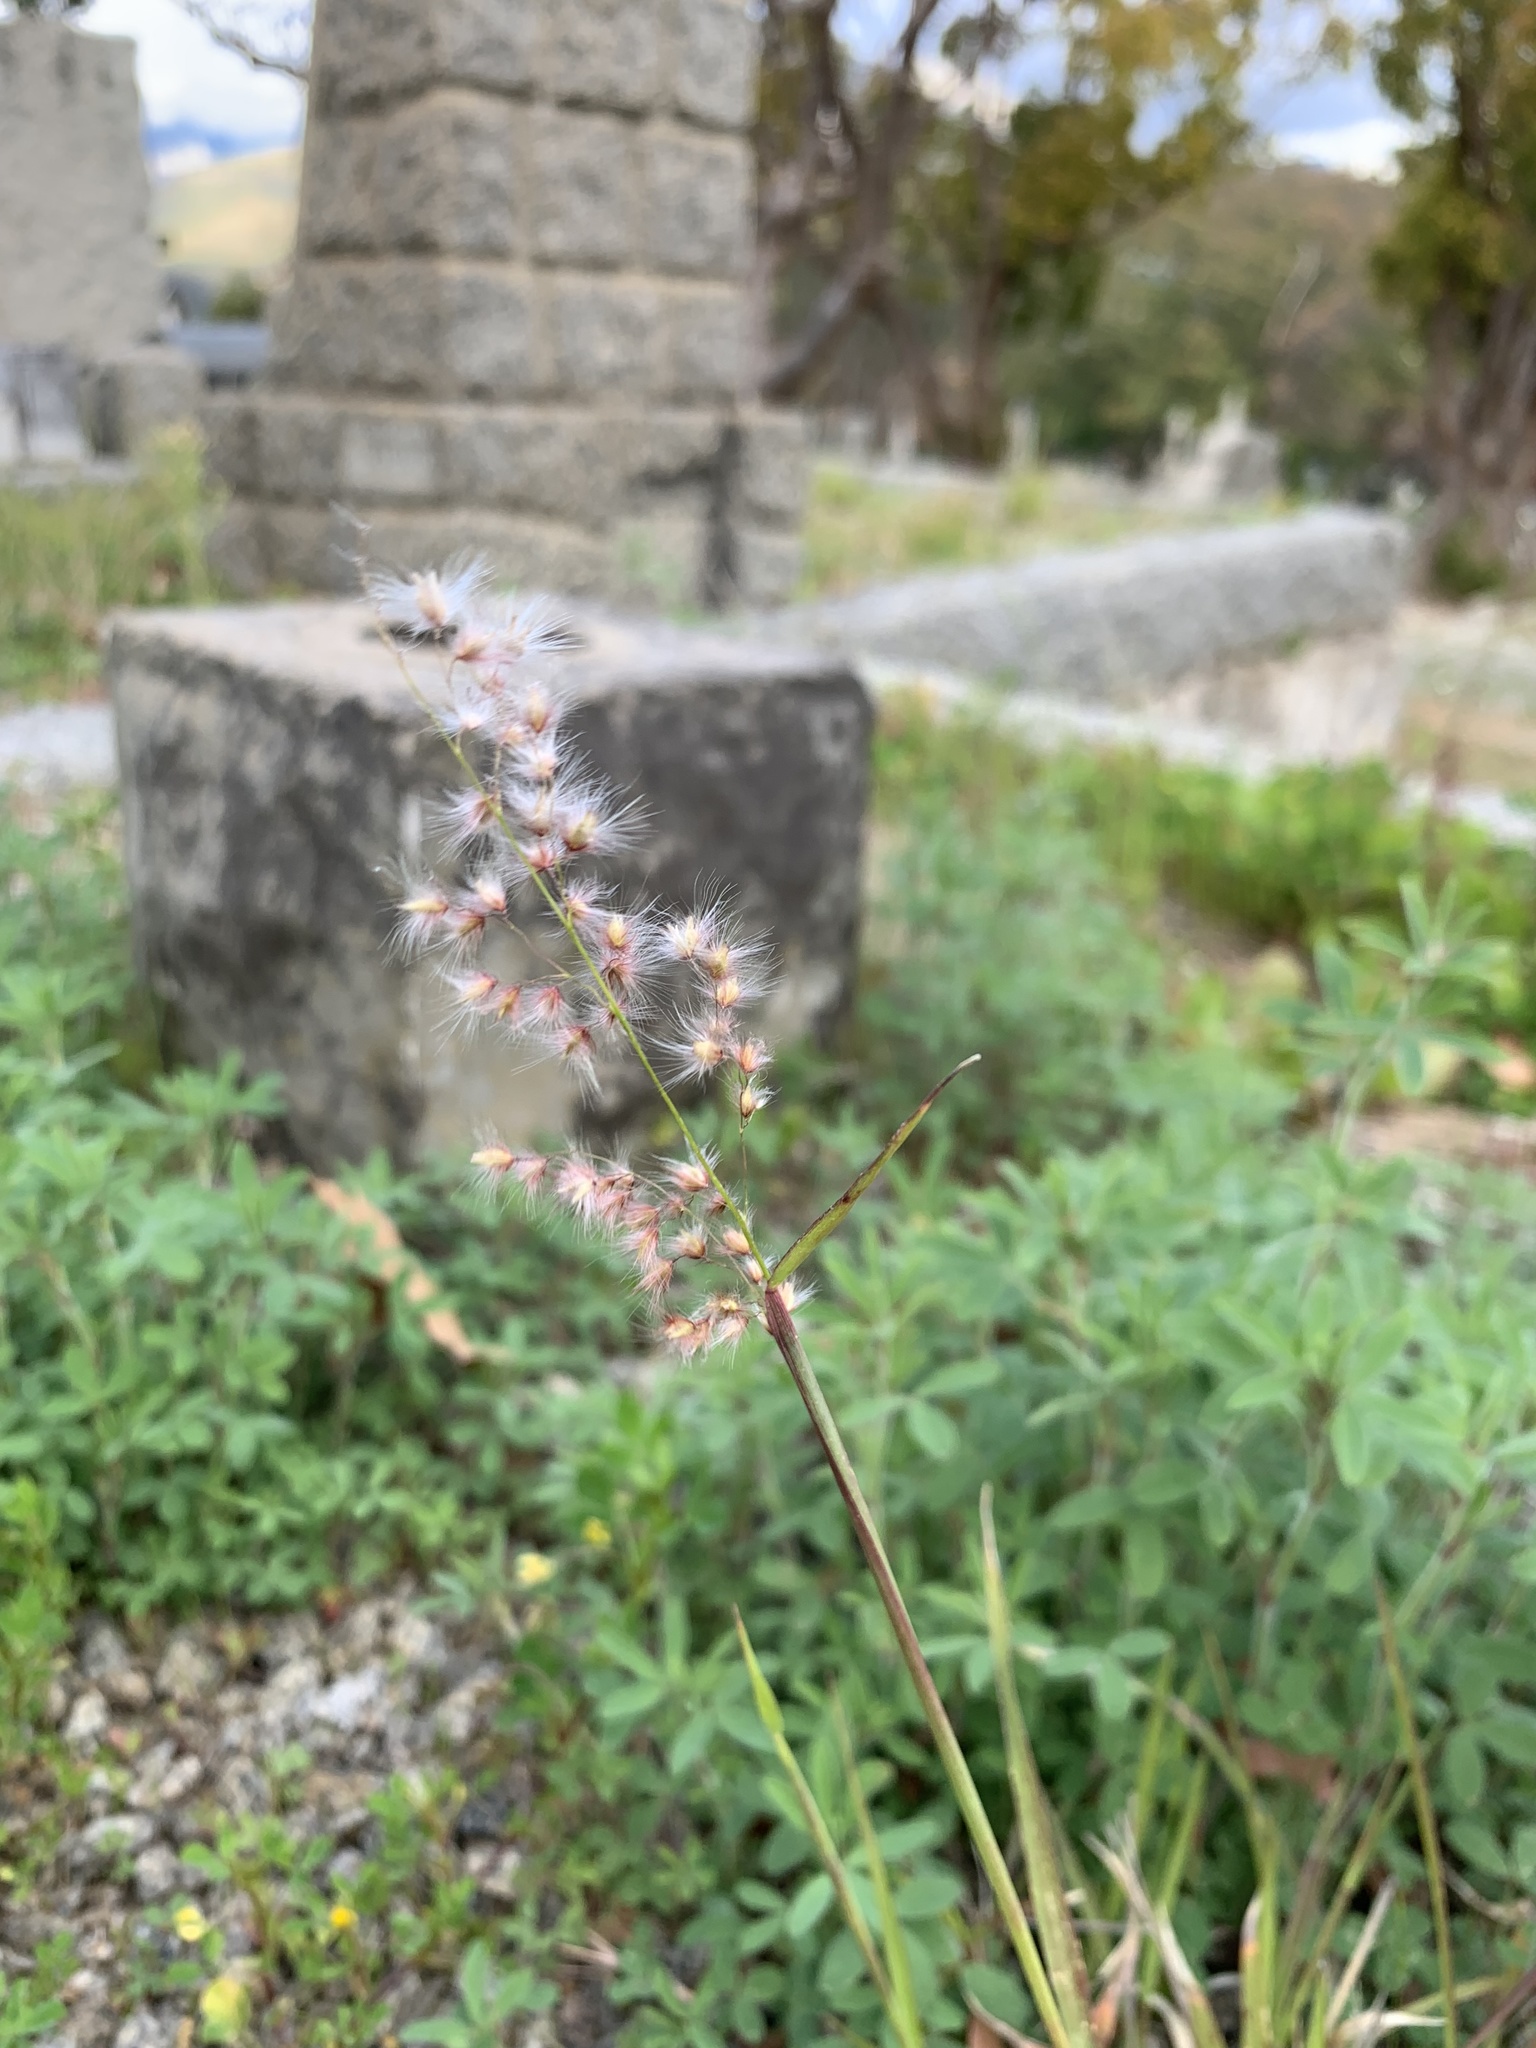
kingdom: Plantae
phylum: Tracheophyta
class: Liliopsida
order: Poales
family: Poaceae
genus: Melinis
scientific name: Melinis repens
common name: Rose natal grass
